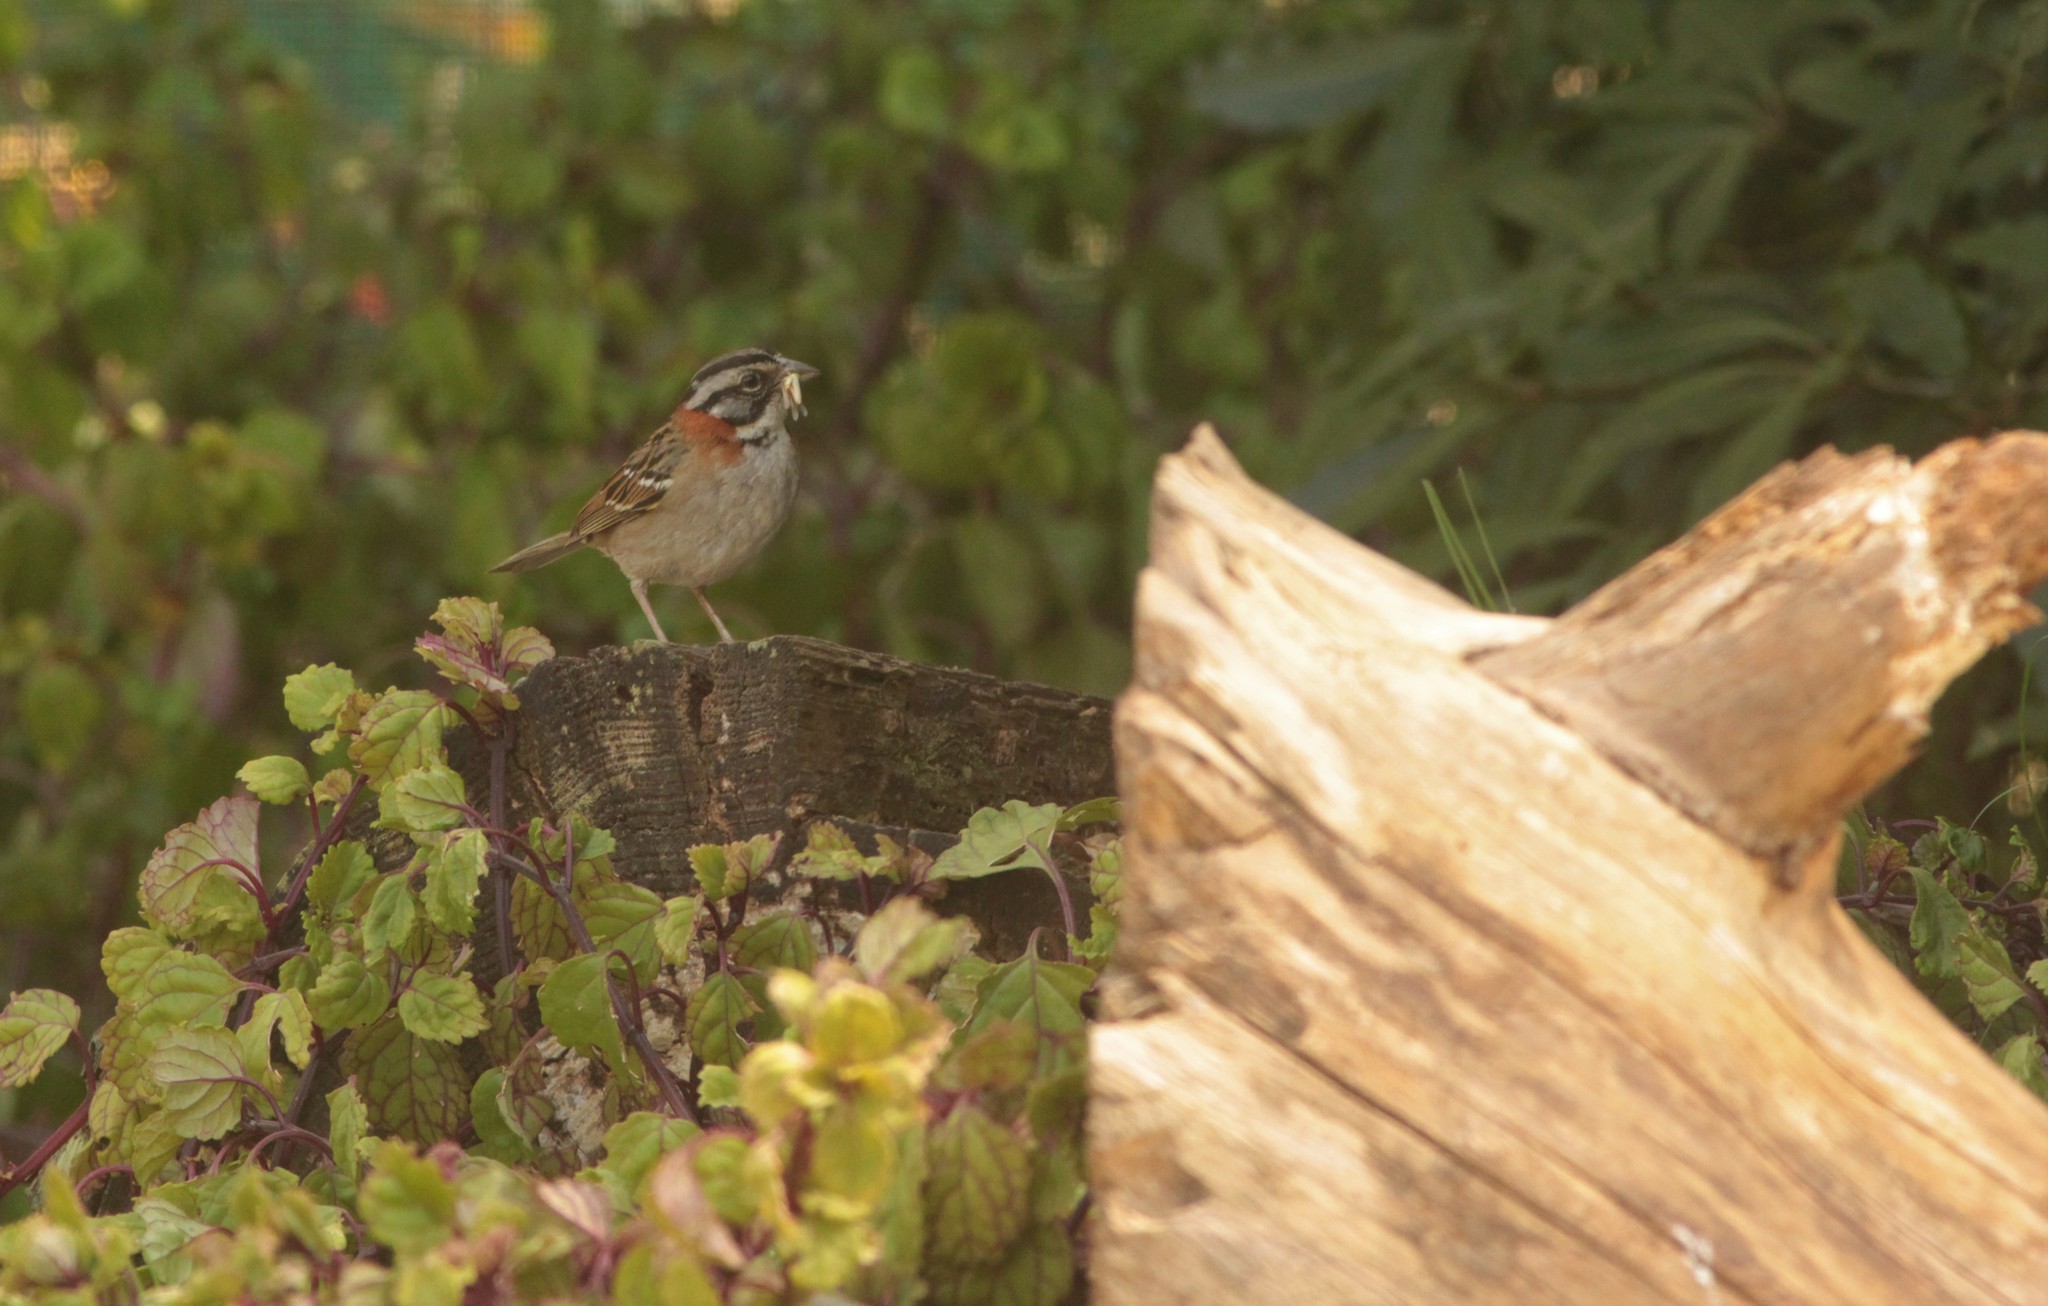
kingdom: Animalia
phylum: Chordata
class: Aves
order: Passeriformes
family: Passerellidae
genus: Zonotrichia
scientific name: Zonotrichia capensis
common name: Rufous-collared sparrow
